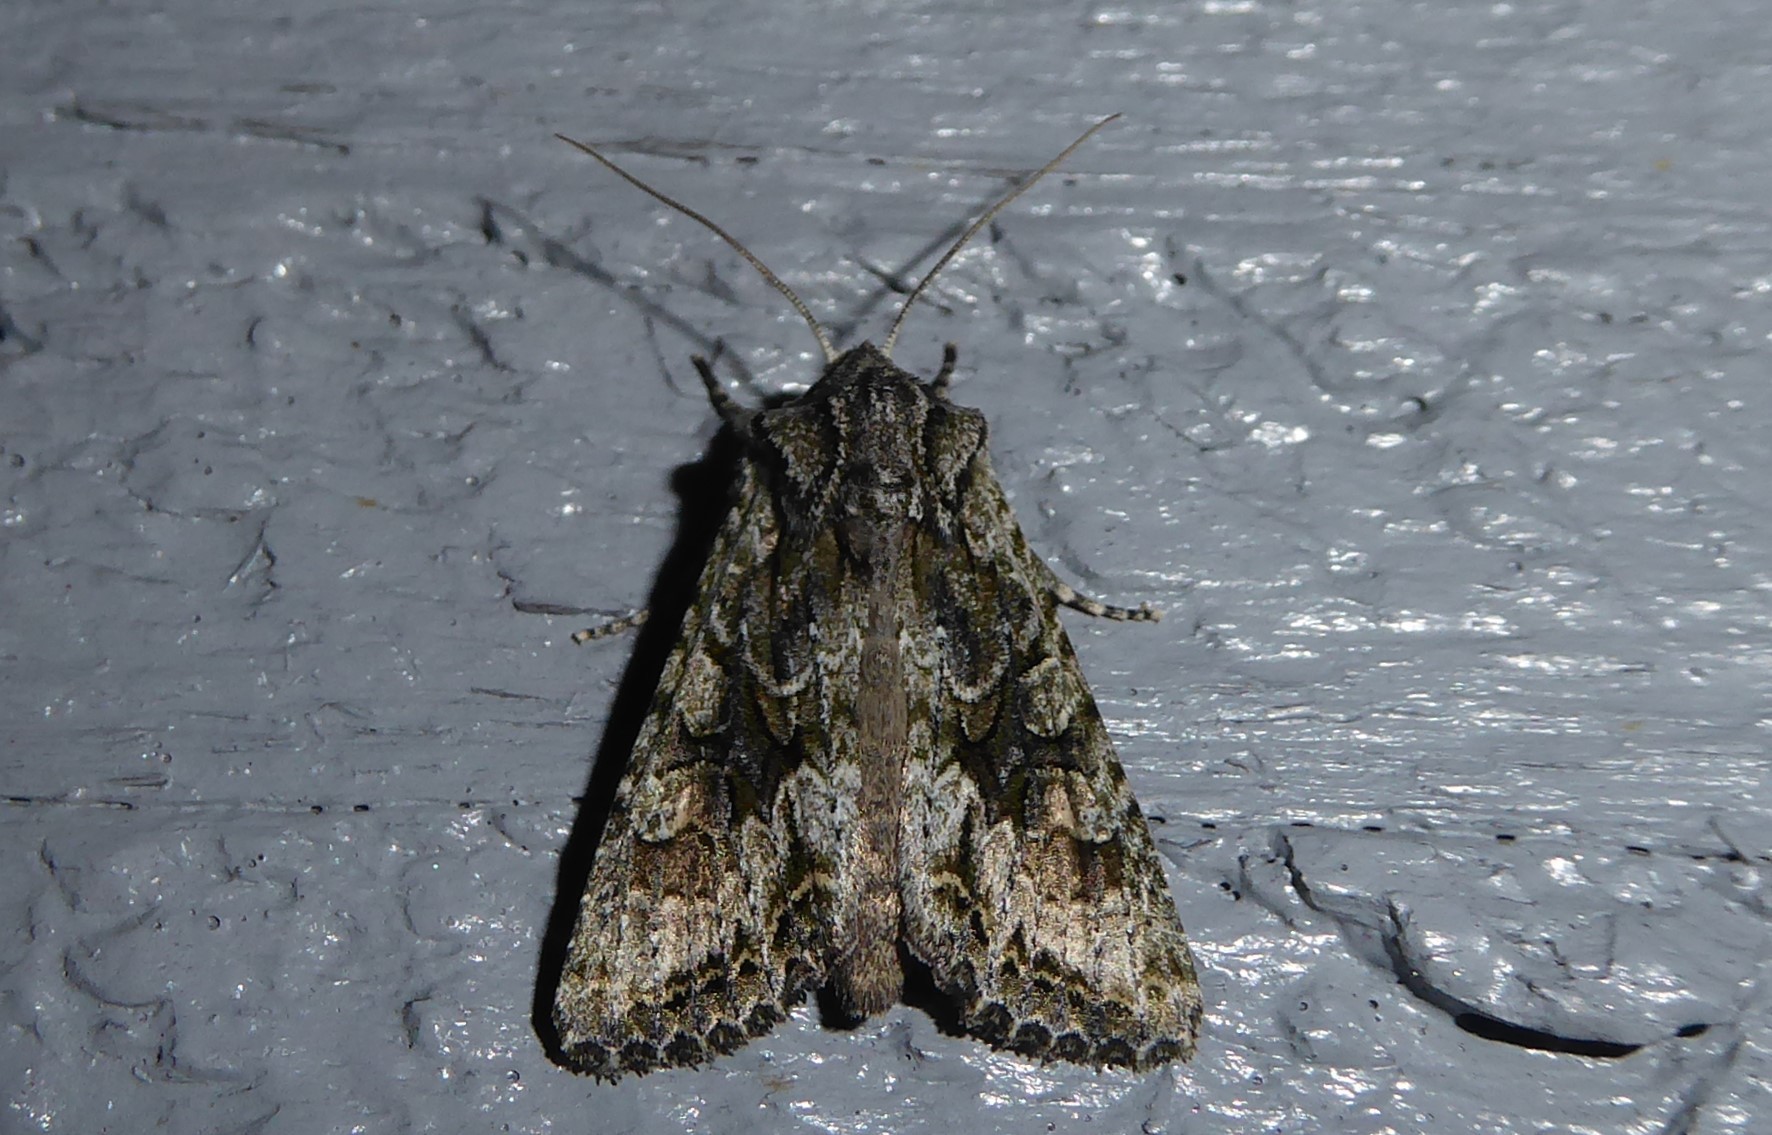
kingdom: Animalia
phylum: Arthropoda
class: Insecta
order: Lepidoptera
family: Noctuidae
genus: Ichneutica
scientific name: Ichneutica mutans
